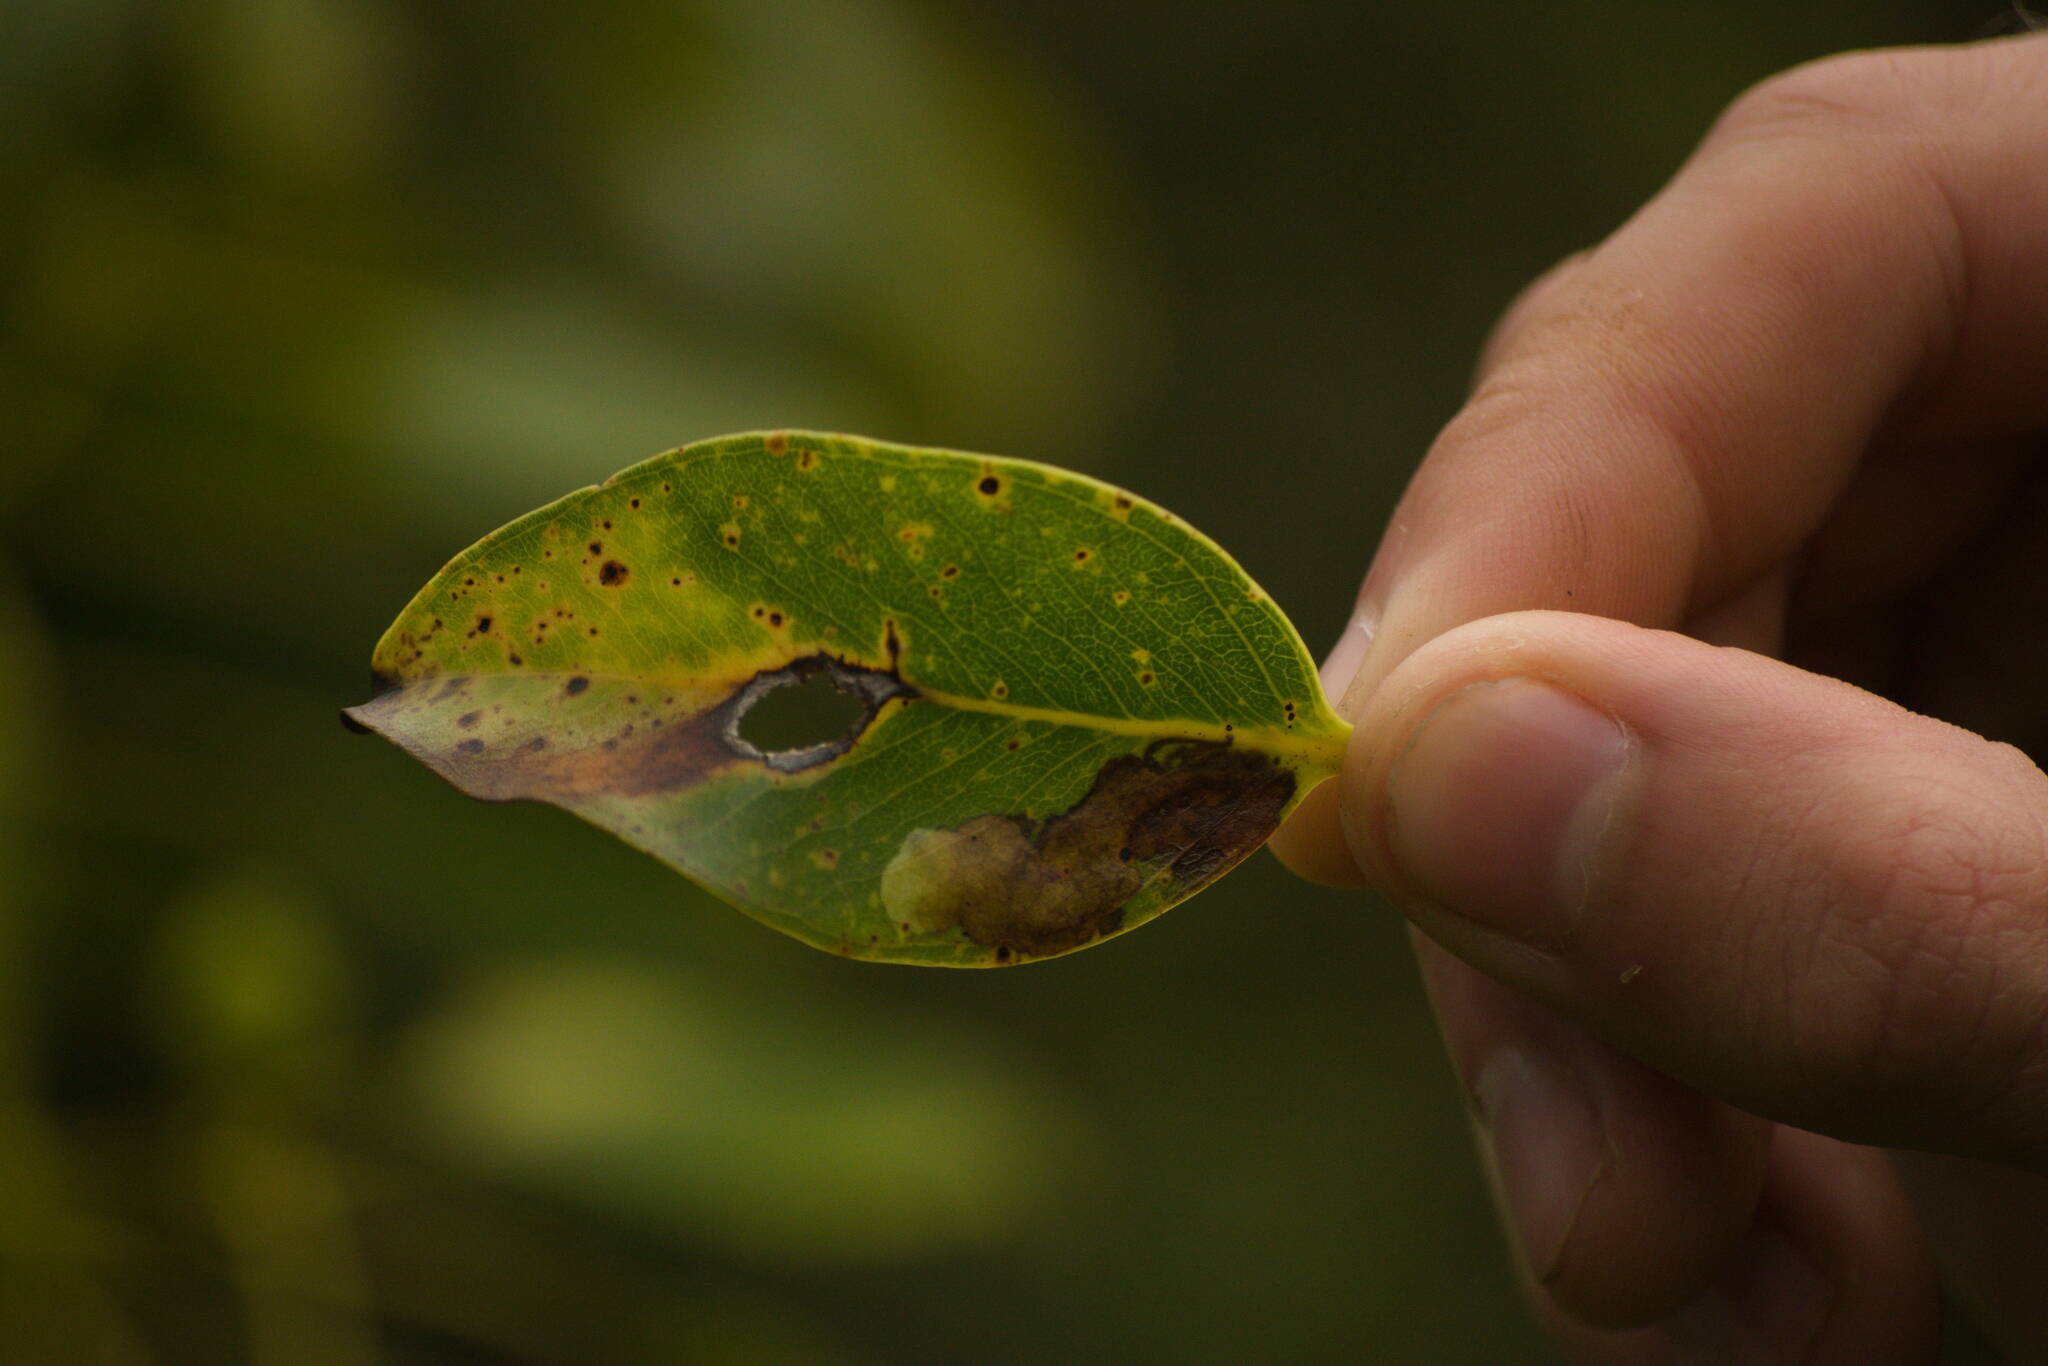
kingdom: Animalia
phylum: Arthropoda
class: Insecta
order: Lepidoptera
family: Gracillariidae
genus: Philodoria
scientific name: Philodoria splendida
